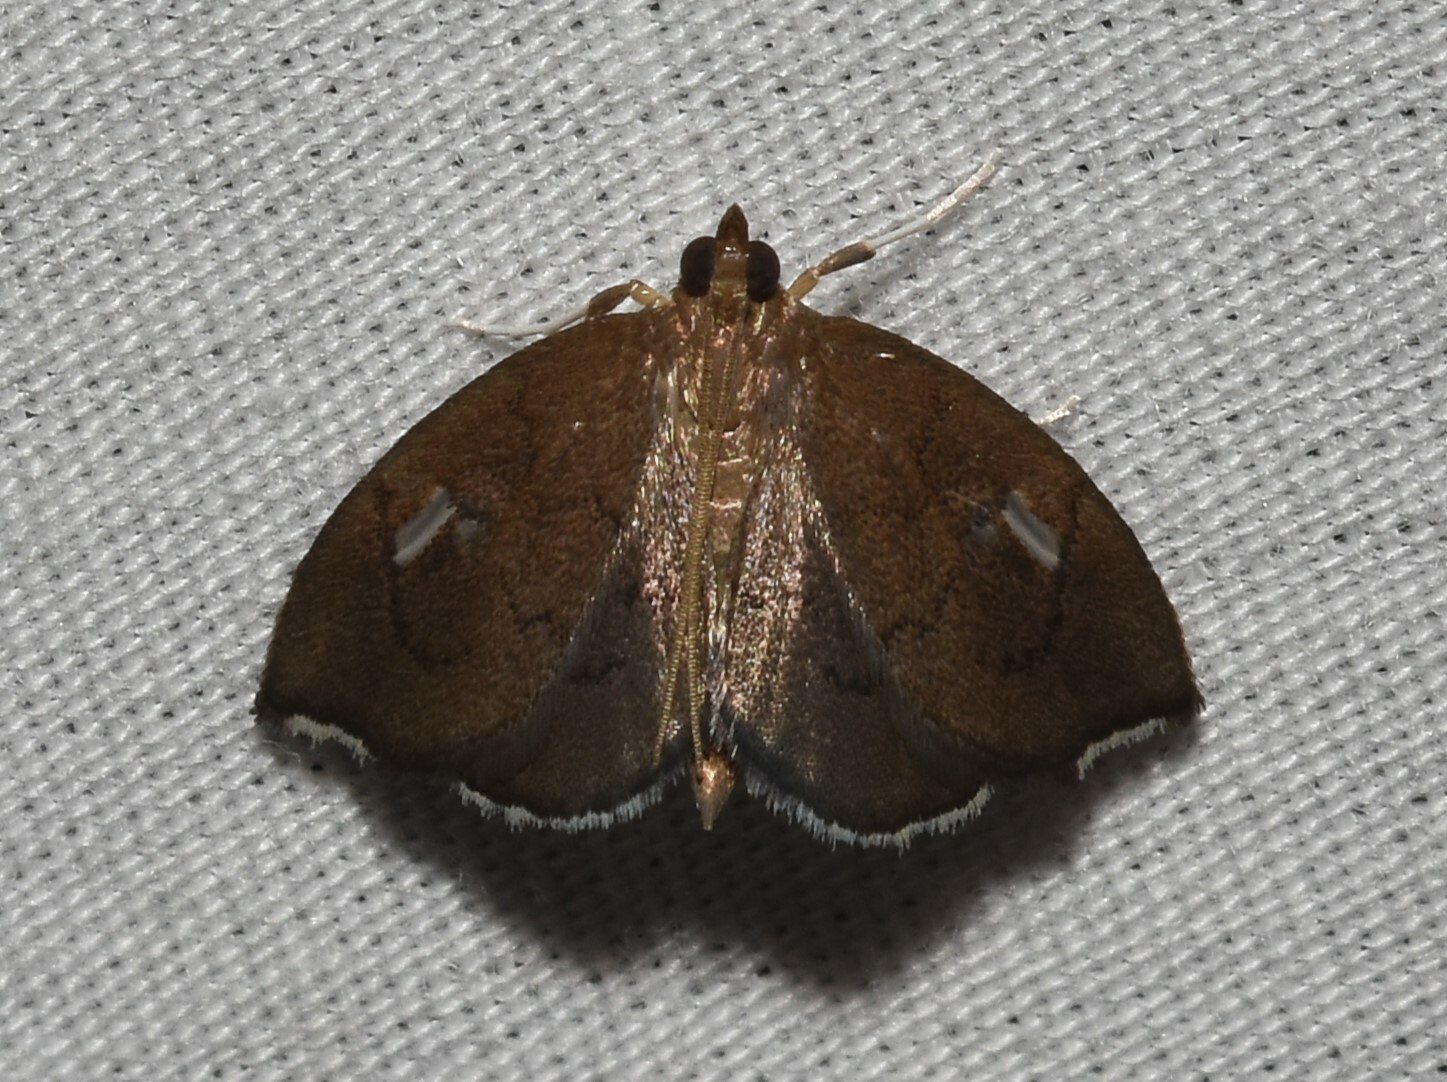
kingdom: Animalia
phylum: Arthropoda
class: Insecta
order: Lepidoptera
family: Crambidae
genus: Perispasta
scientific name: Perispasta caeculalis
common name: Titian peale's moth
